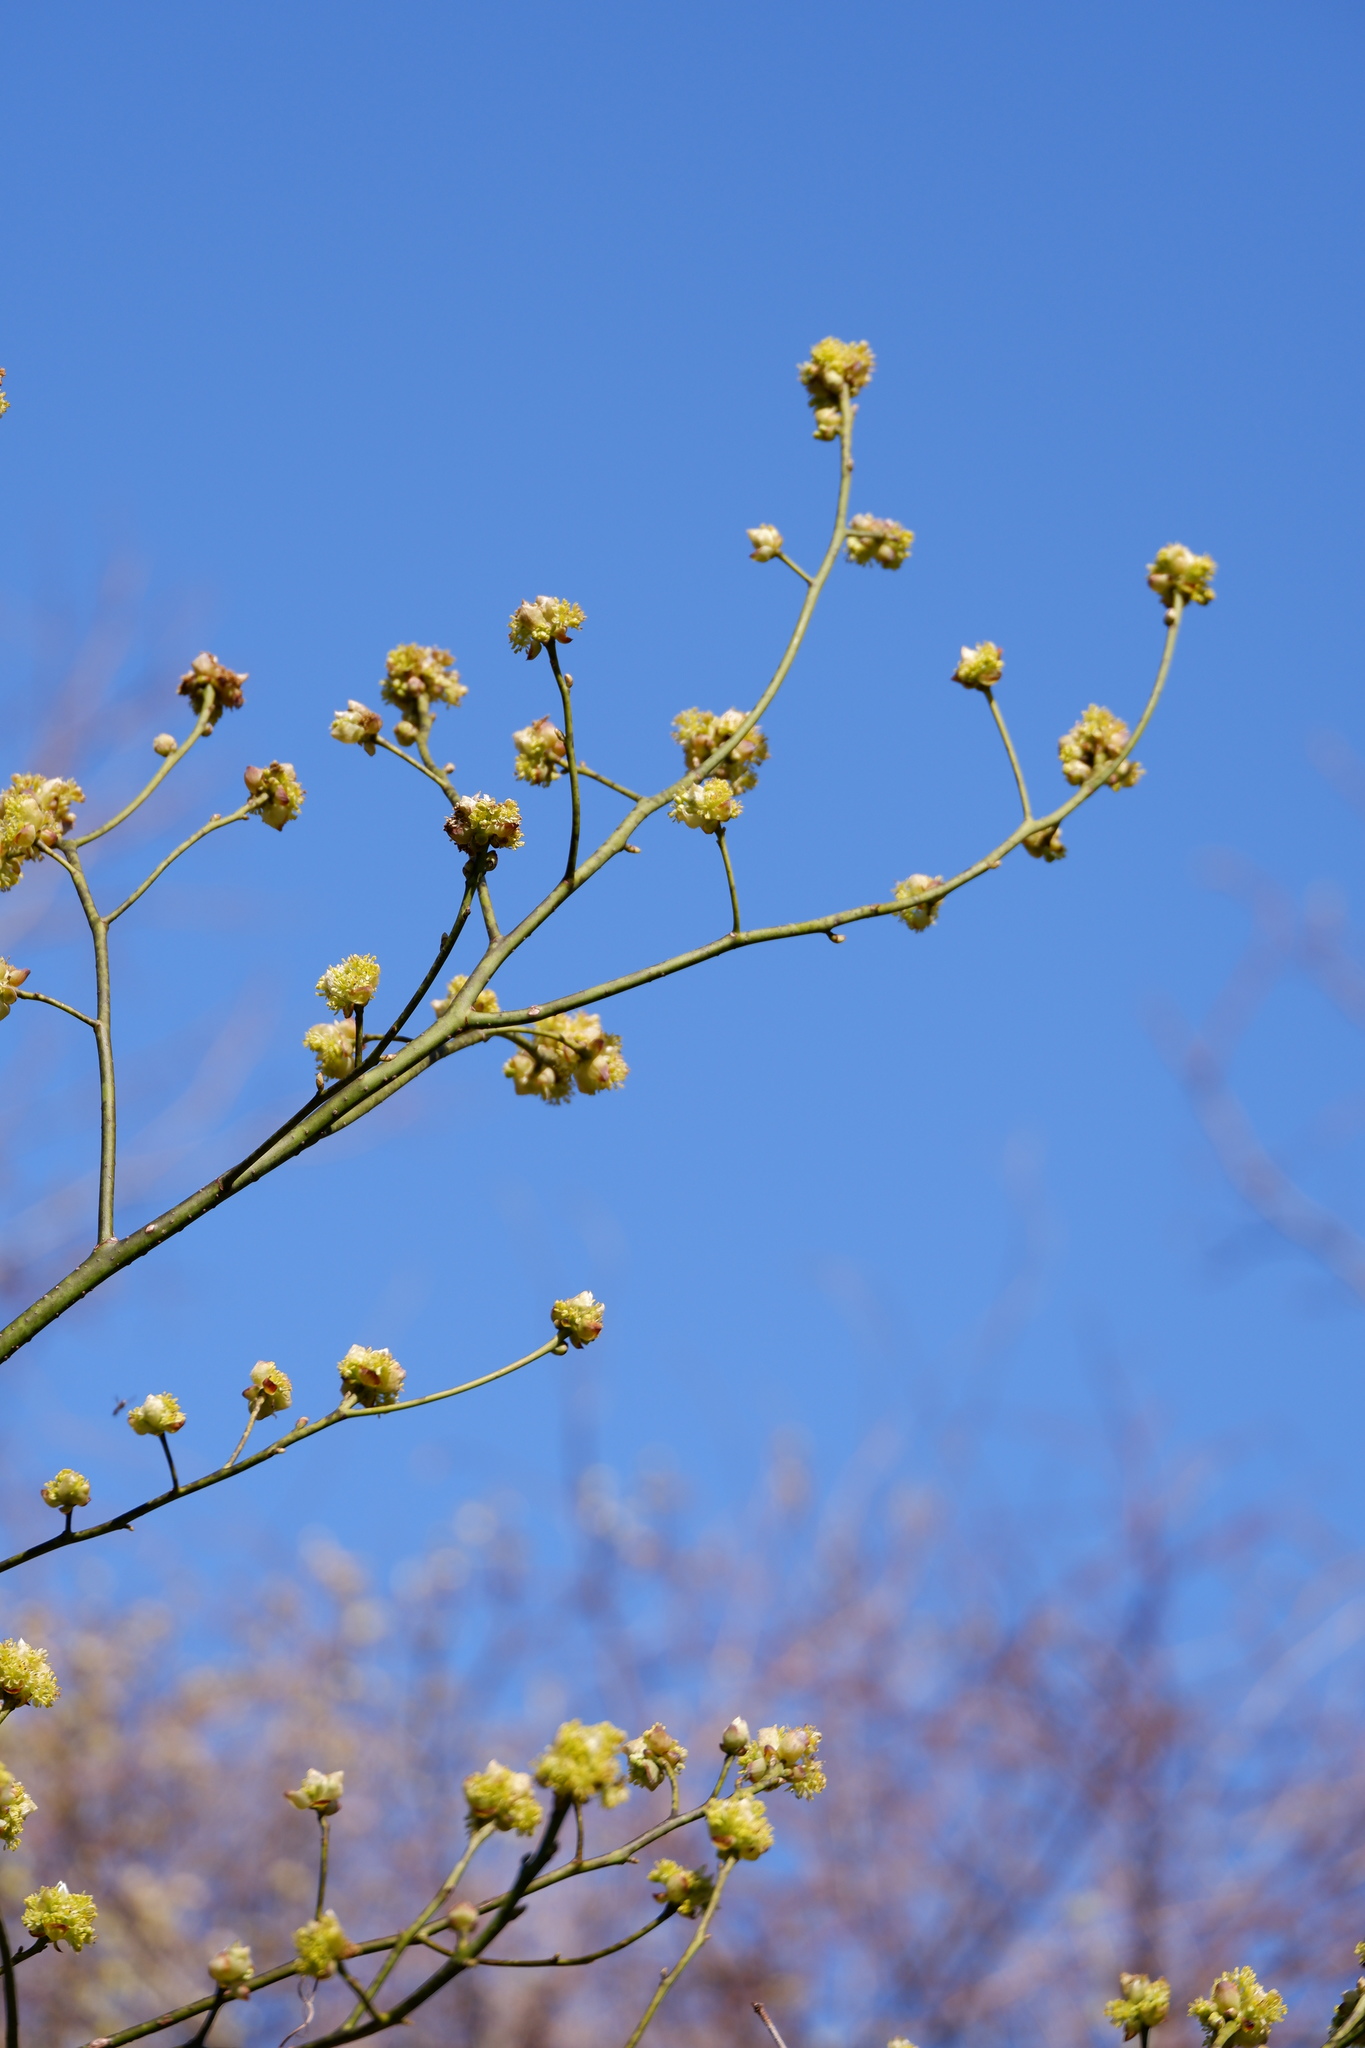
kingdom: Plantae
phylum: Tracheophyta
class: Magnoliopsida
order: Laurales
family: Lauraceae
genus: Sassafras
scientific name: Sassafras albidum
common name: Sassafras
